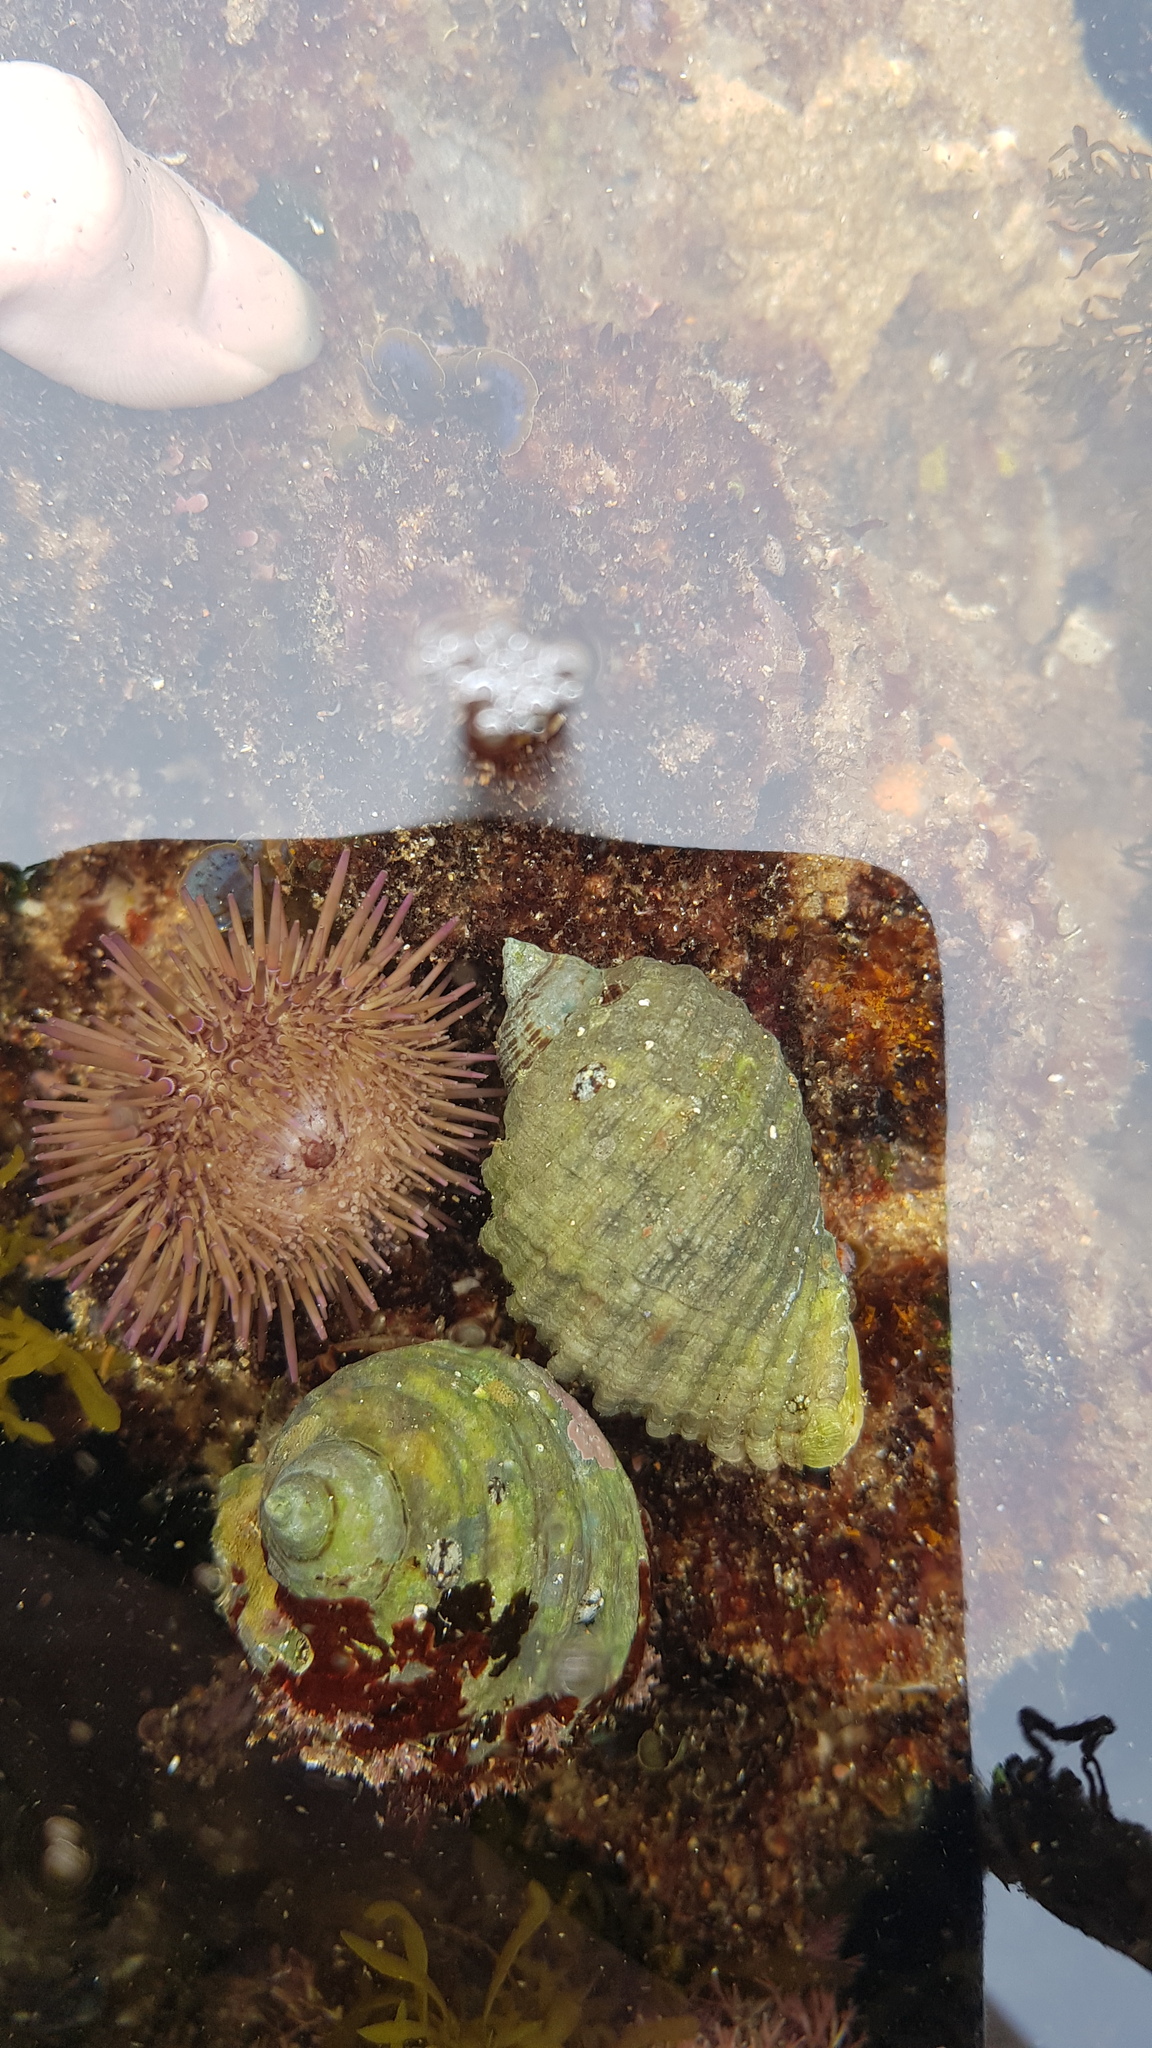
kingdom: Animalia
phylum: Mollusca
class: Gastropoda
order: Neogastropoda
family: Muricidae
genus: Dicathais
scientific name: Dicathais orbita
